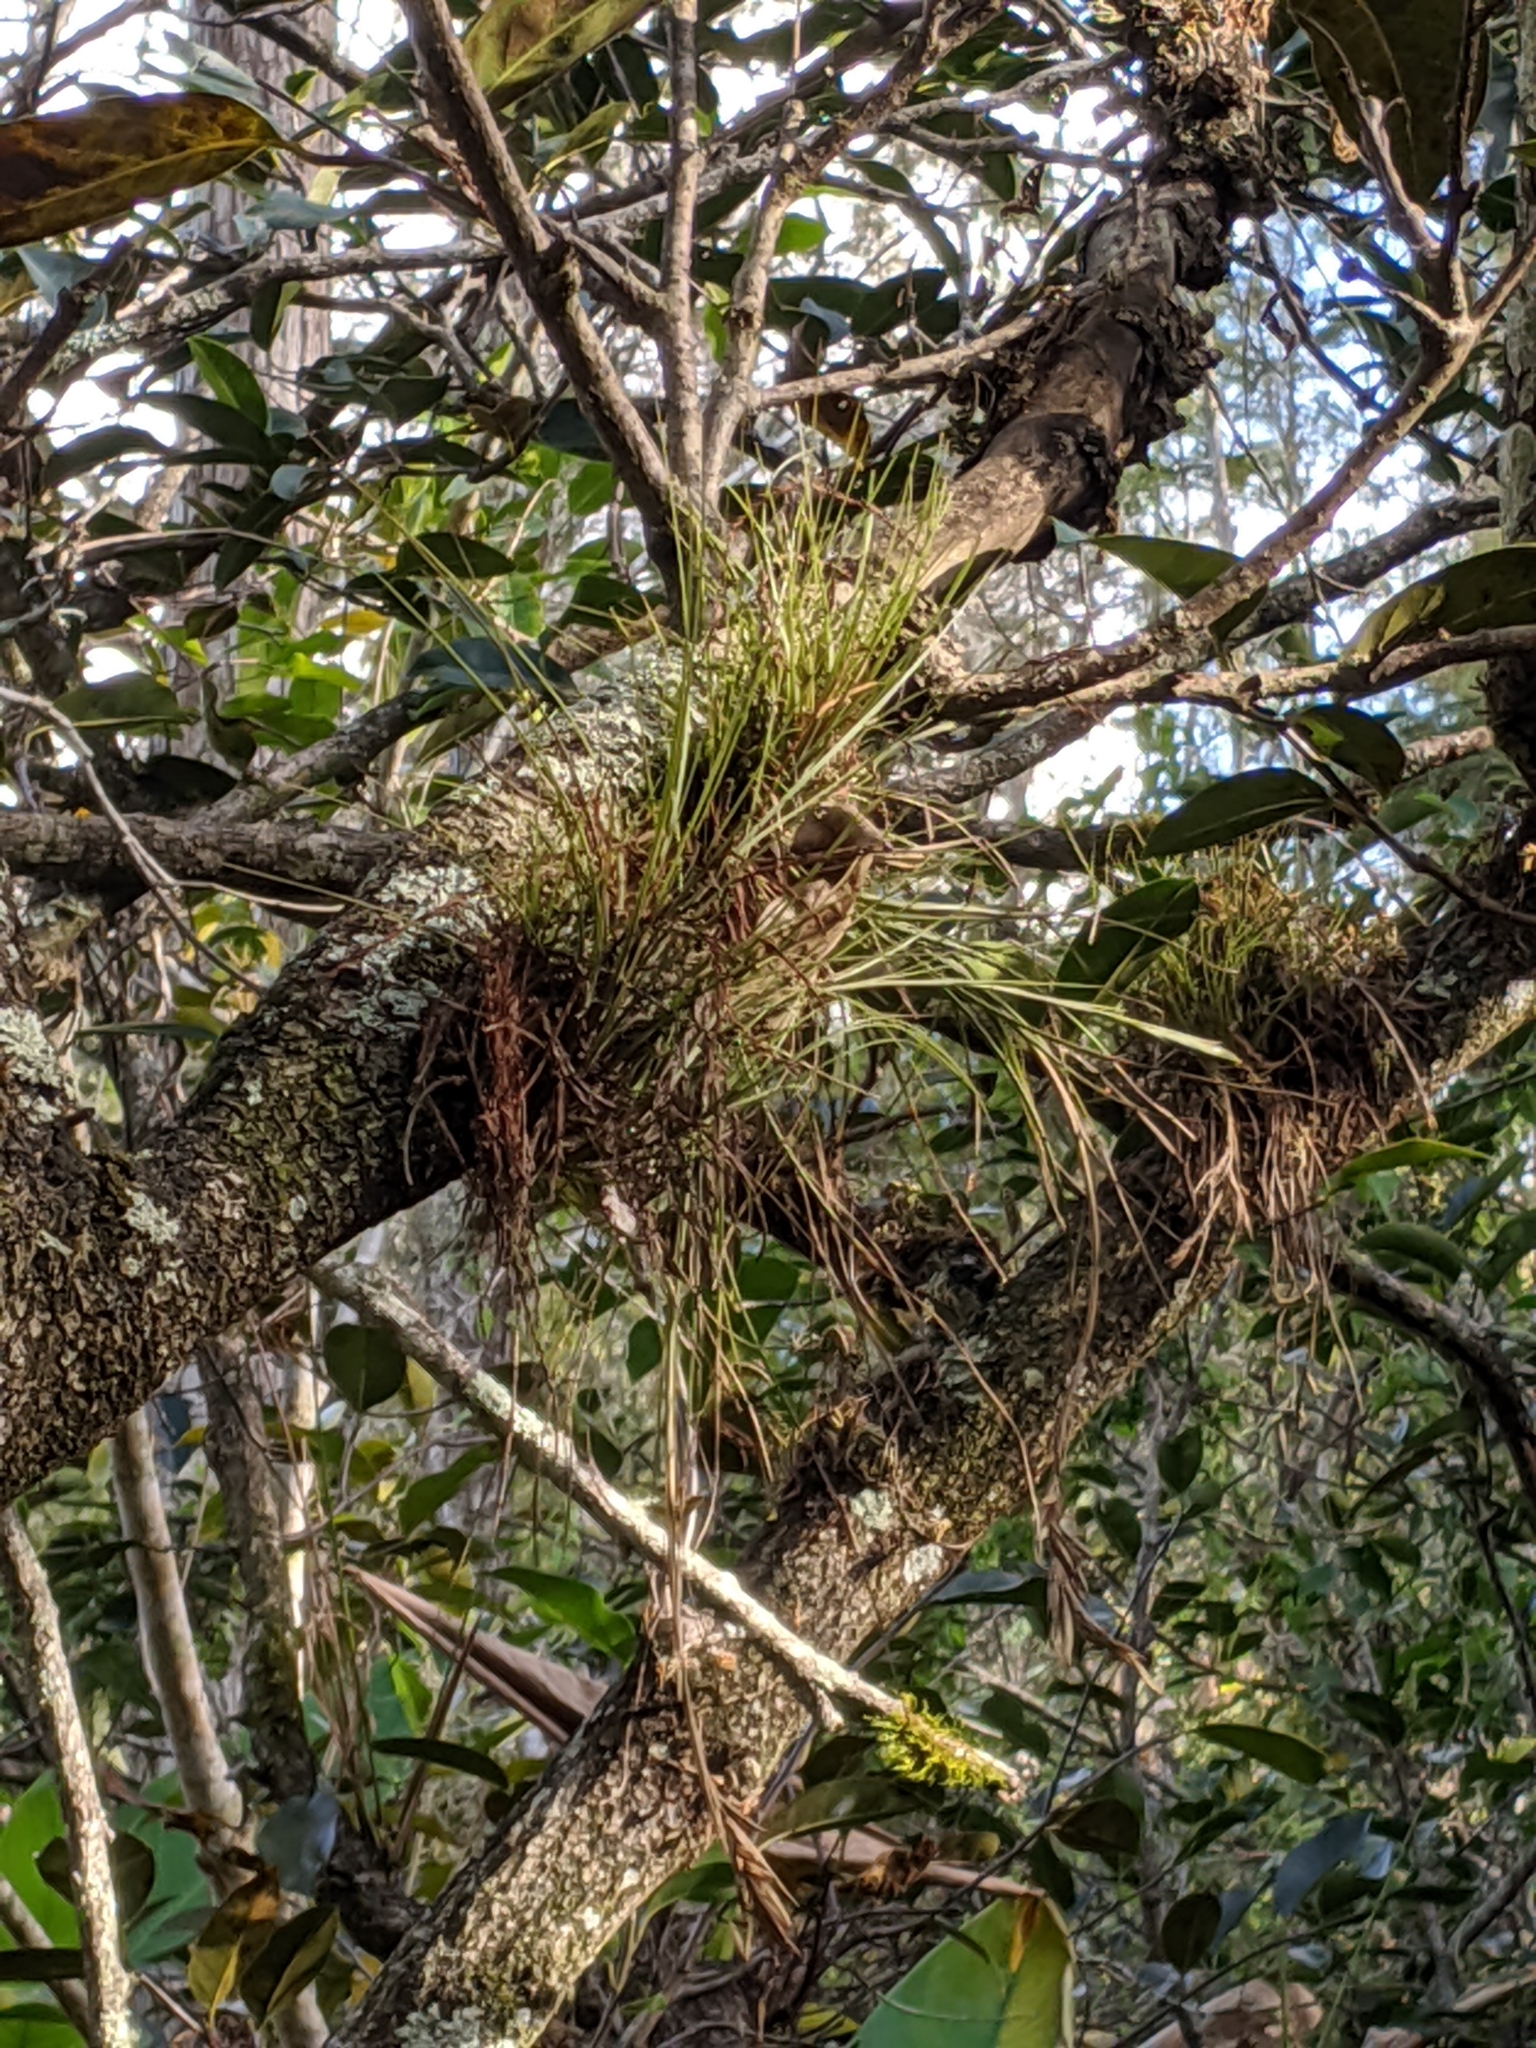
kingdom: Plantae
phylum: Tracheophyta
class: Liliopsida
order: Poales
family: Bromeliaceae
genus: Tillandsia
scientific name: Tillandsia setacea
